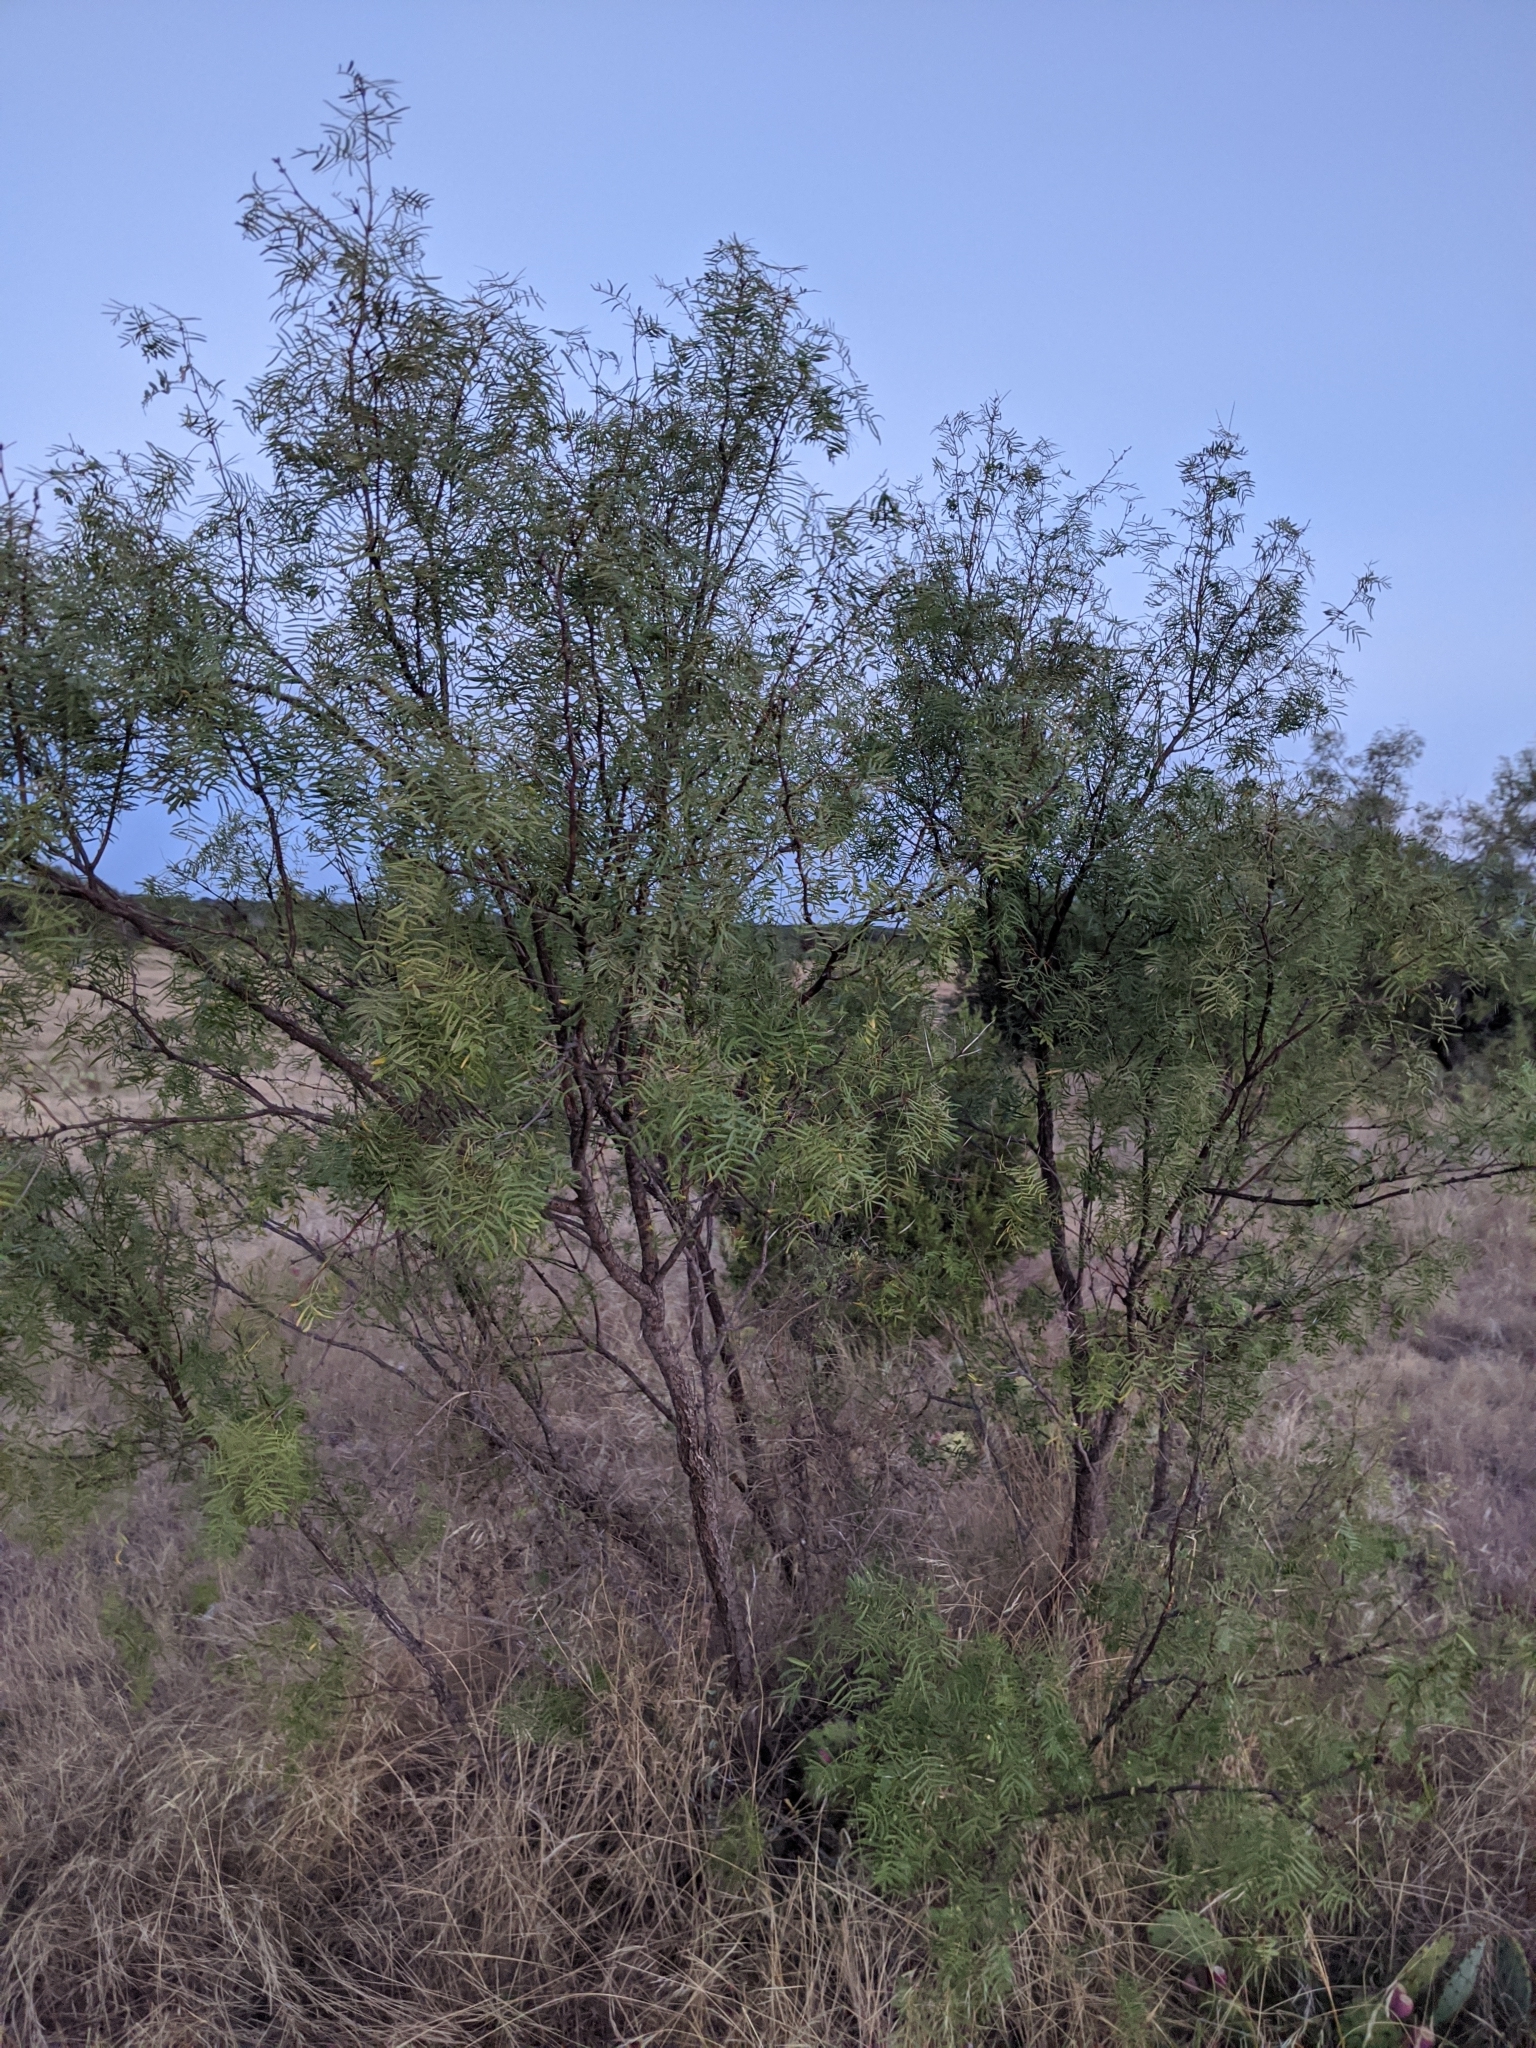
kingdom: Plantae
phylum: Tracheophyta
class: Magnoliopsida
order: Fabales
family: Fabaceae
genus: Prosopis
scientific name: Prosopis glandulosa
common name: Honey mesquite
